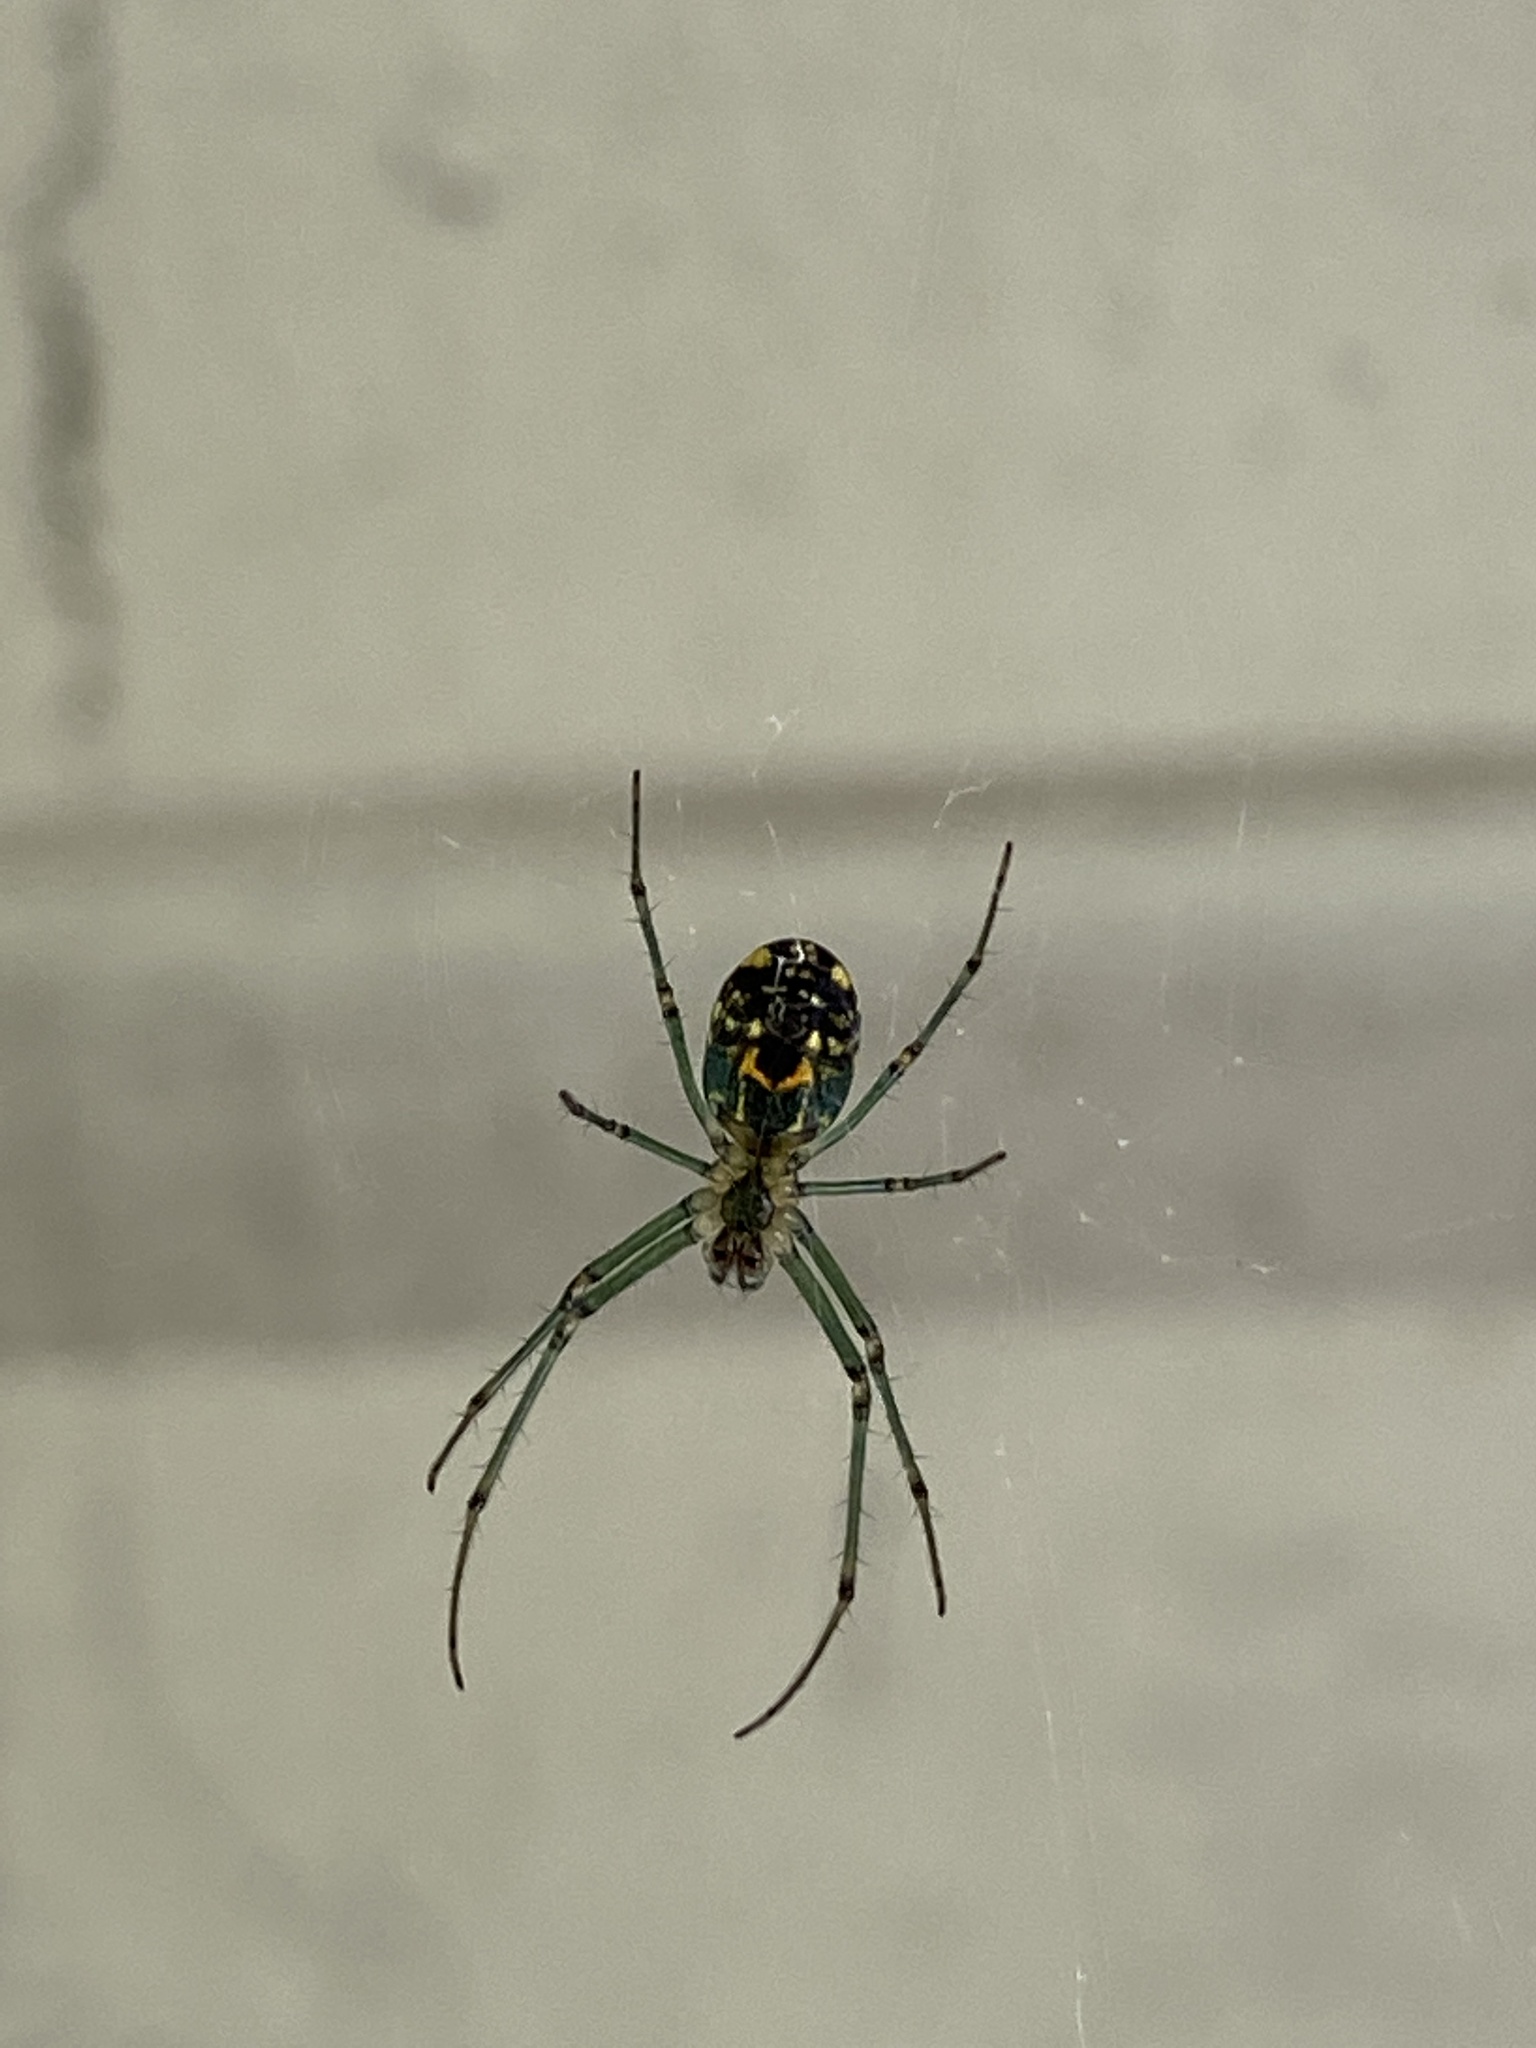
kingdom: Animalia
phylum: Arthropoda
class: Arachnida
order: Araneae
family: Tetragnathidae
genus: Leucauge
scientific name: Leucauge venusta
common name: Longjawed orb weavers
